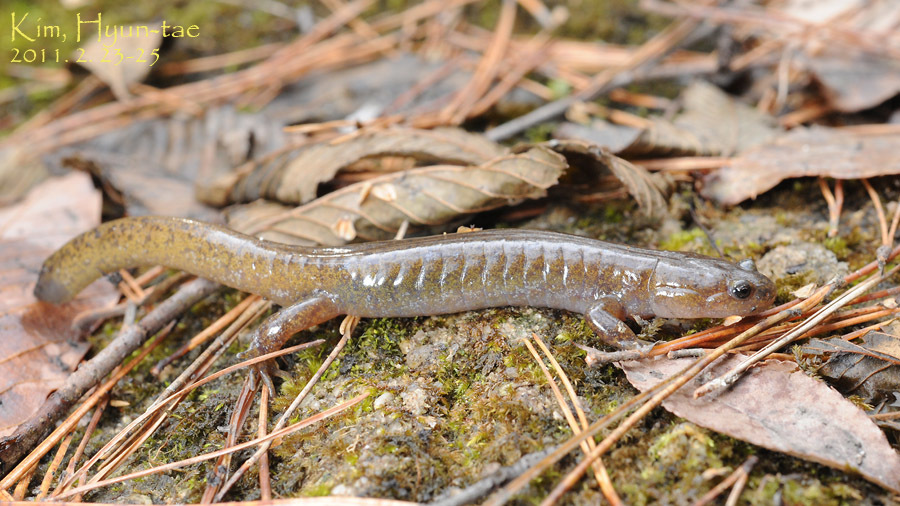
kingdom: Animalia
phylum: Chordata
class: Amphibia
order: Caudata
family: Hynobiidae
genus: Hynobius
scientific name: Hynobius notialis
